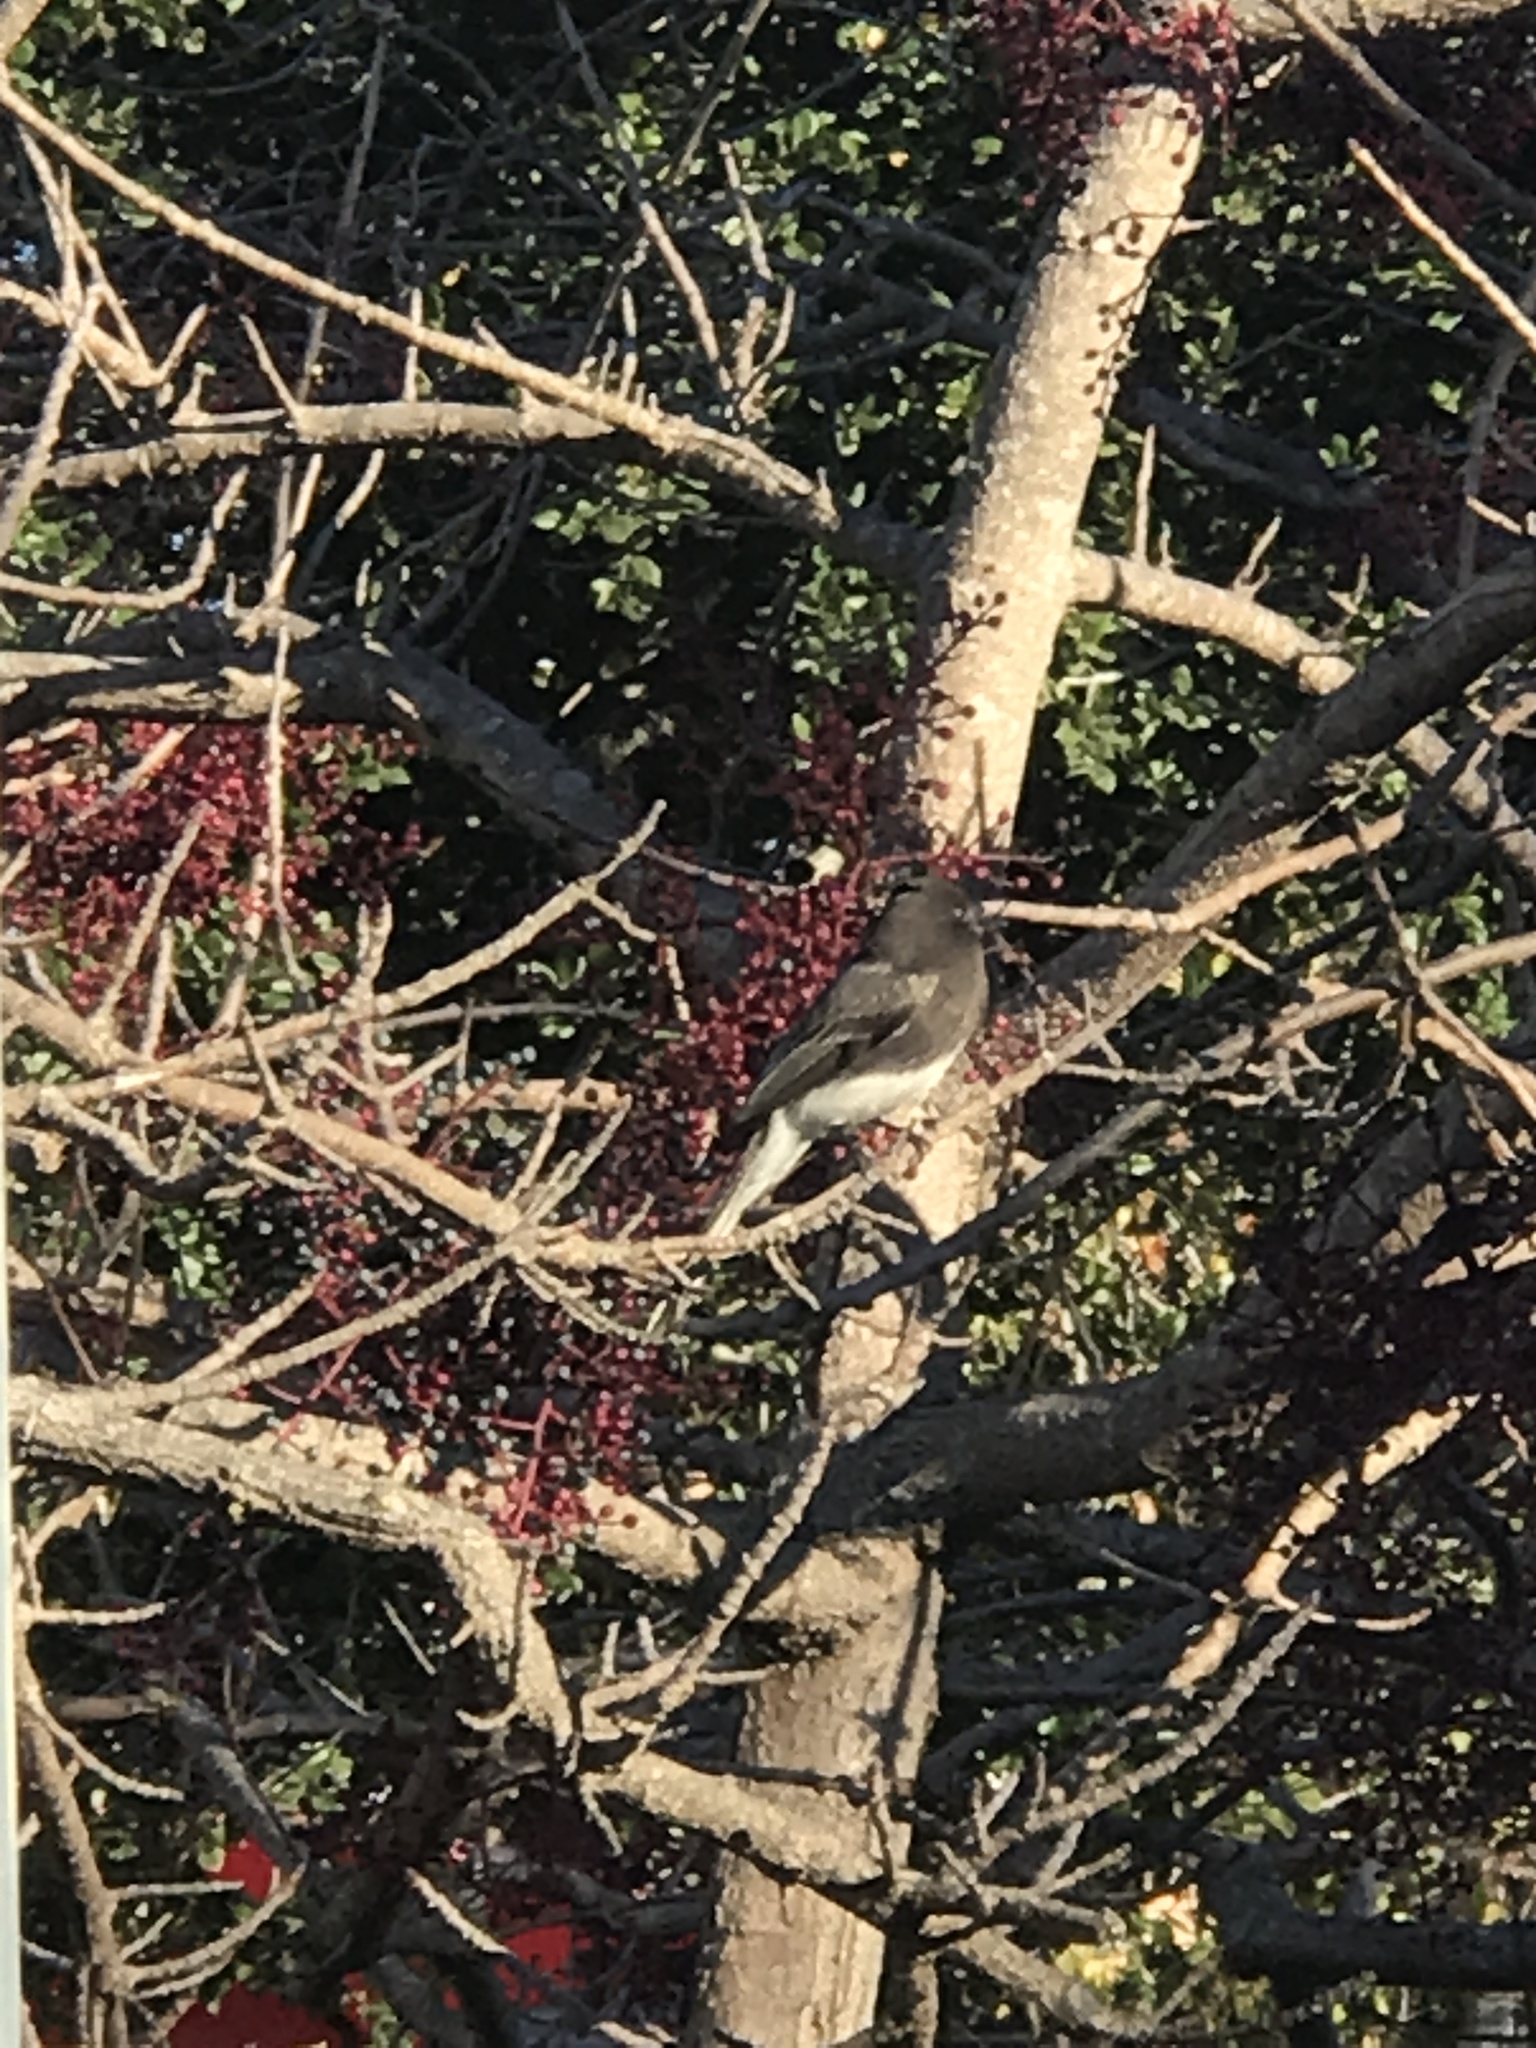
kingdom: Animalia
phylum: Chordata
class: Aves
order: Passeriformes
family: Tyrannidae
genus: Sayornis
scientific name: Sayornis nigricans
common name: Black phoebe
